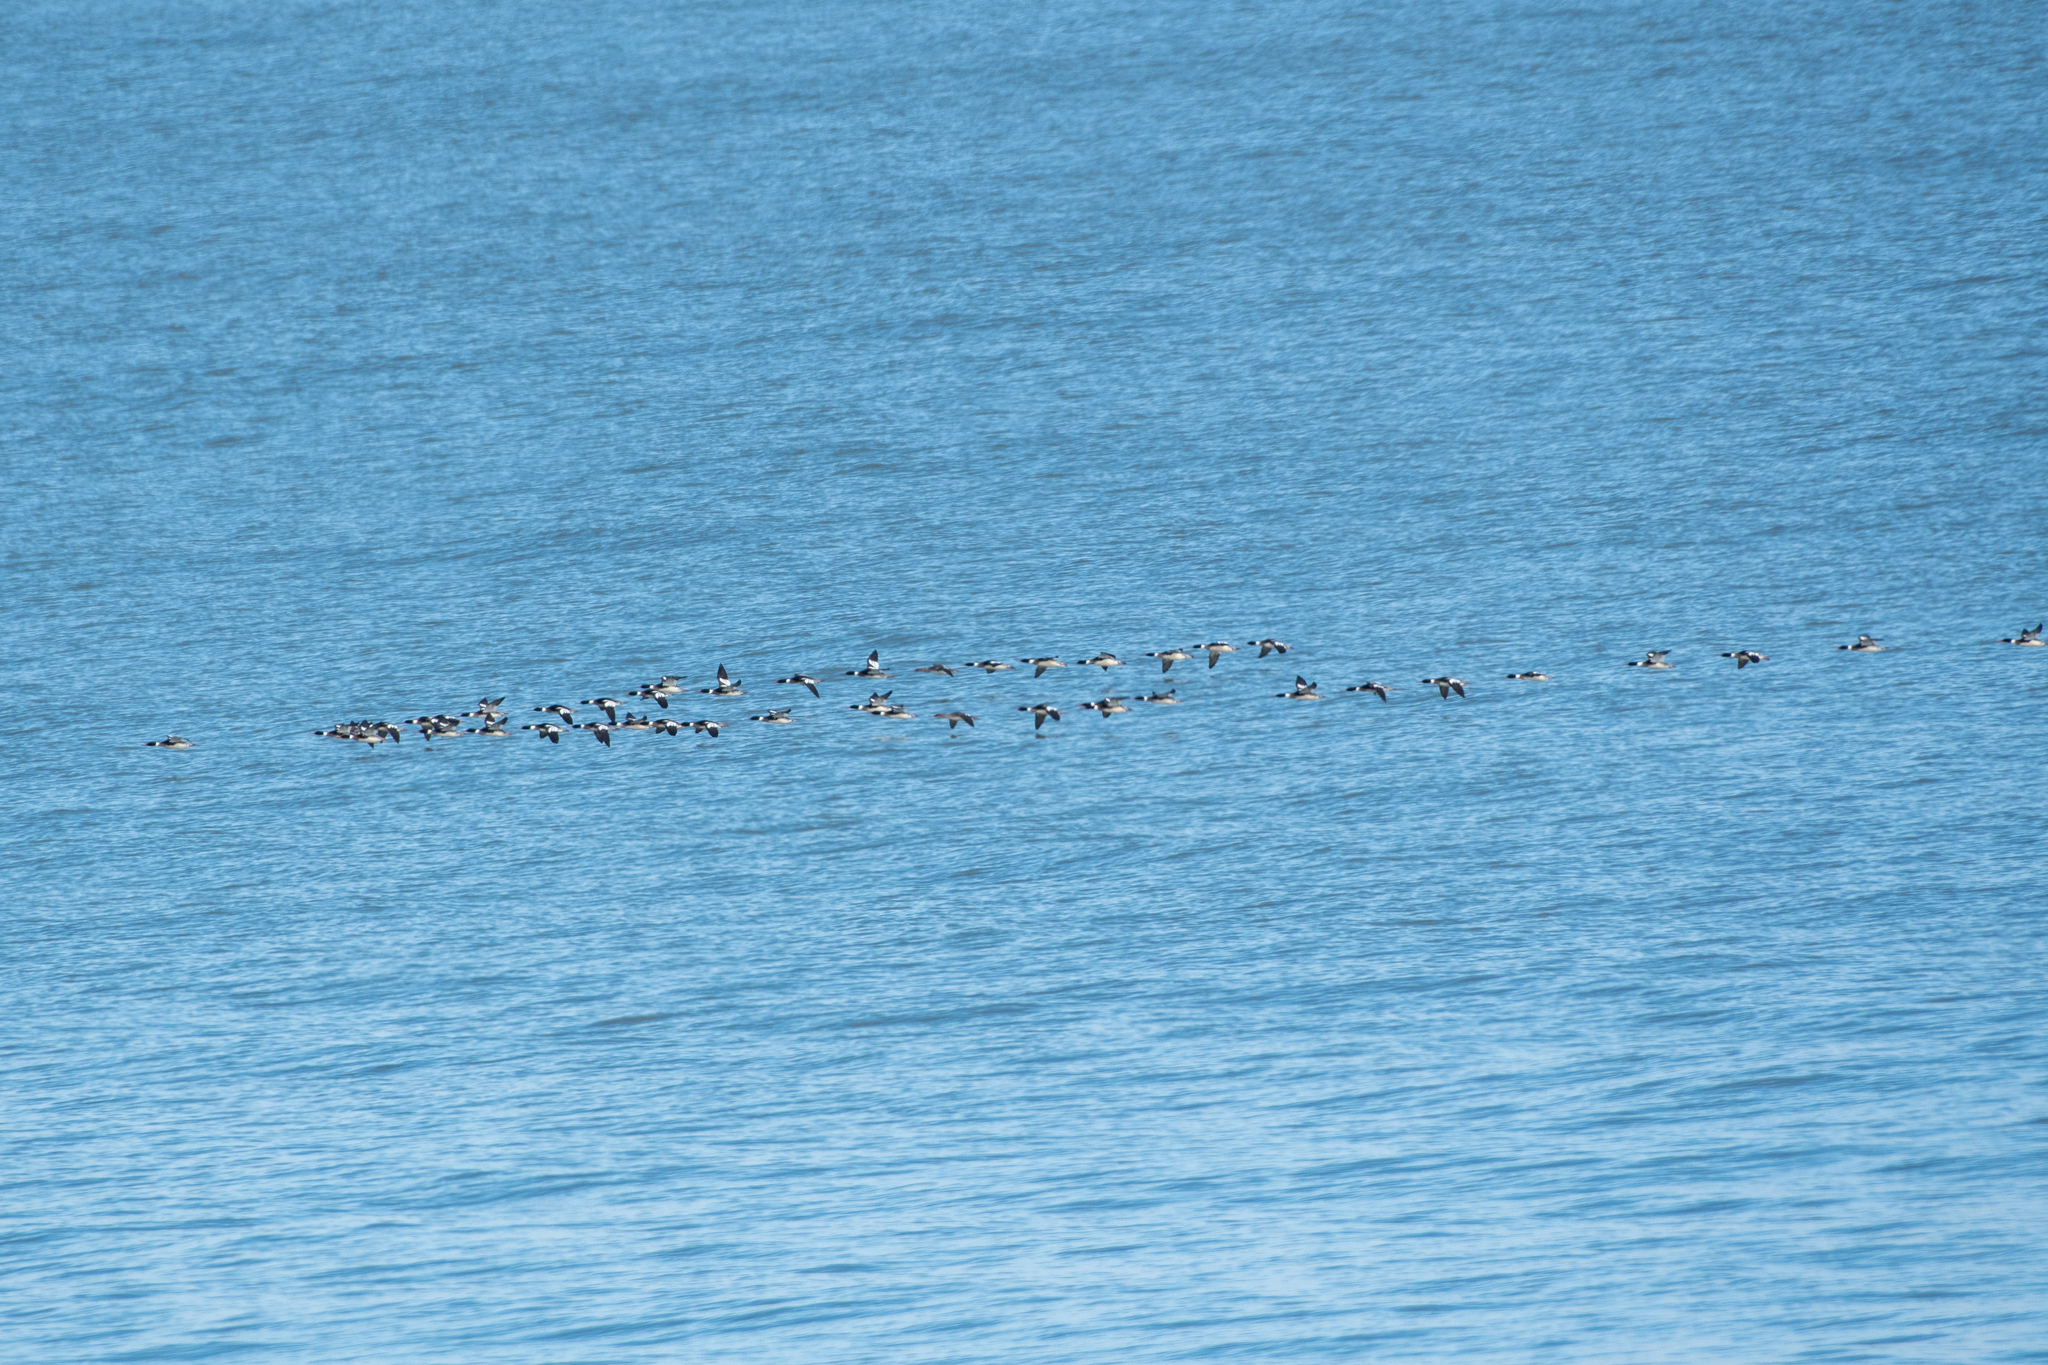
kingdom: Animalia
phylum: Chordata
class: Aves
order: Anseriformes
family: Anatidae
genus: Mergus
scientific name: Mergus serrator
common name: Red-breasted merganser
